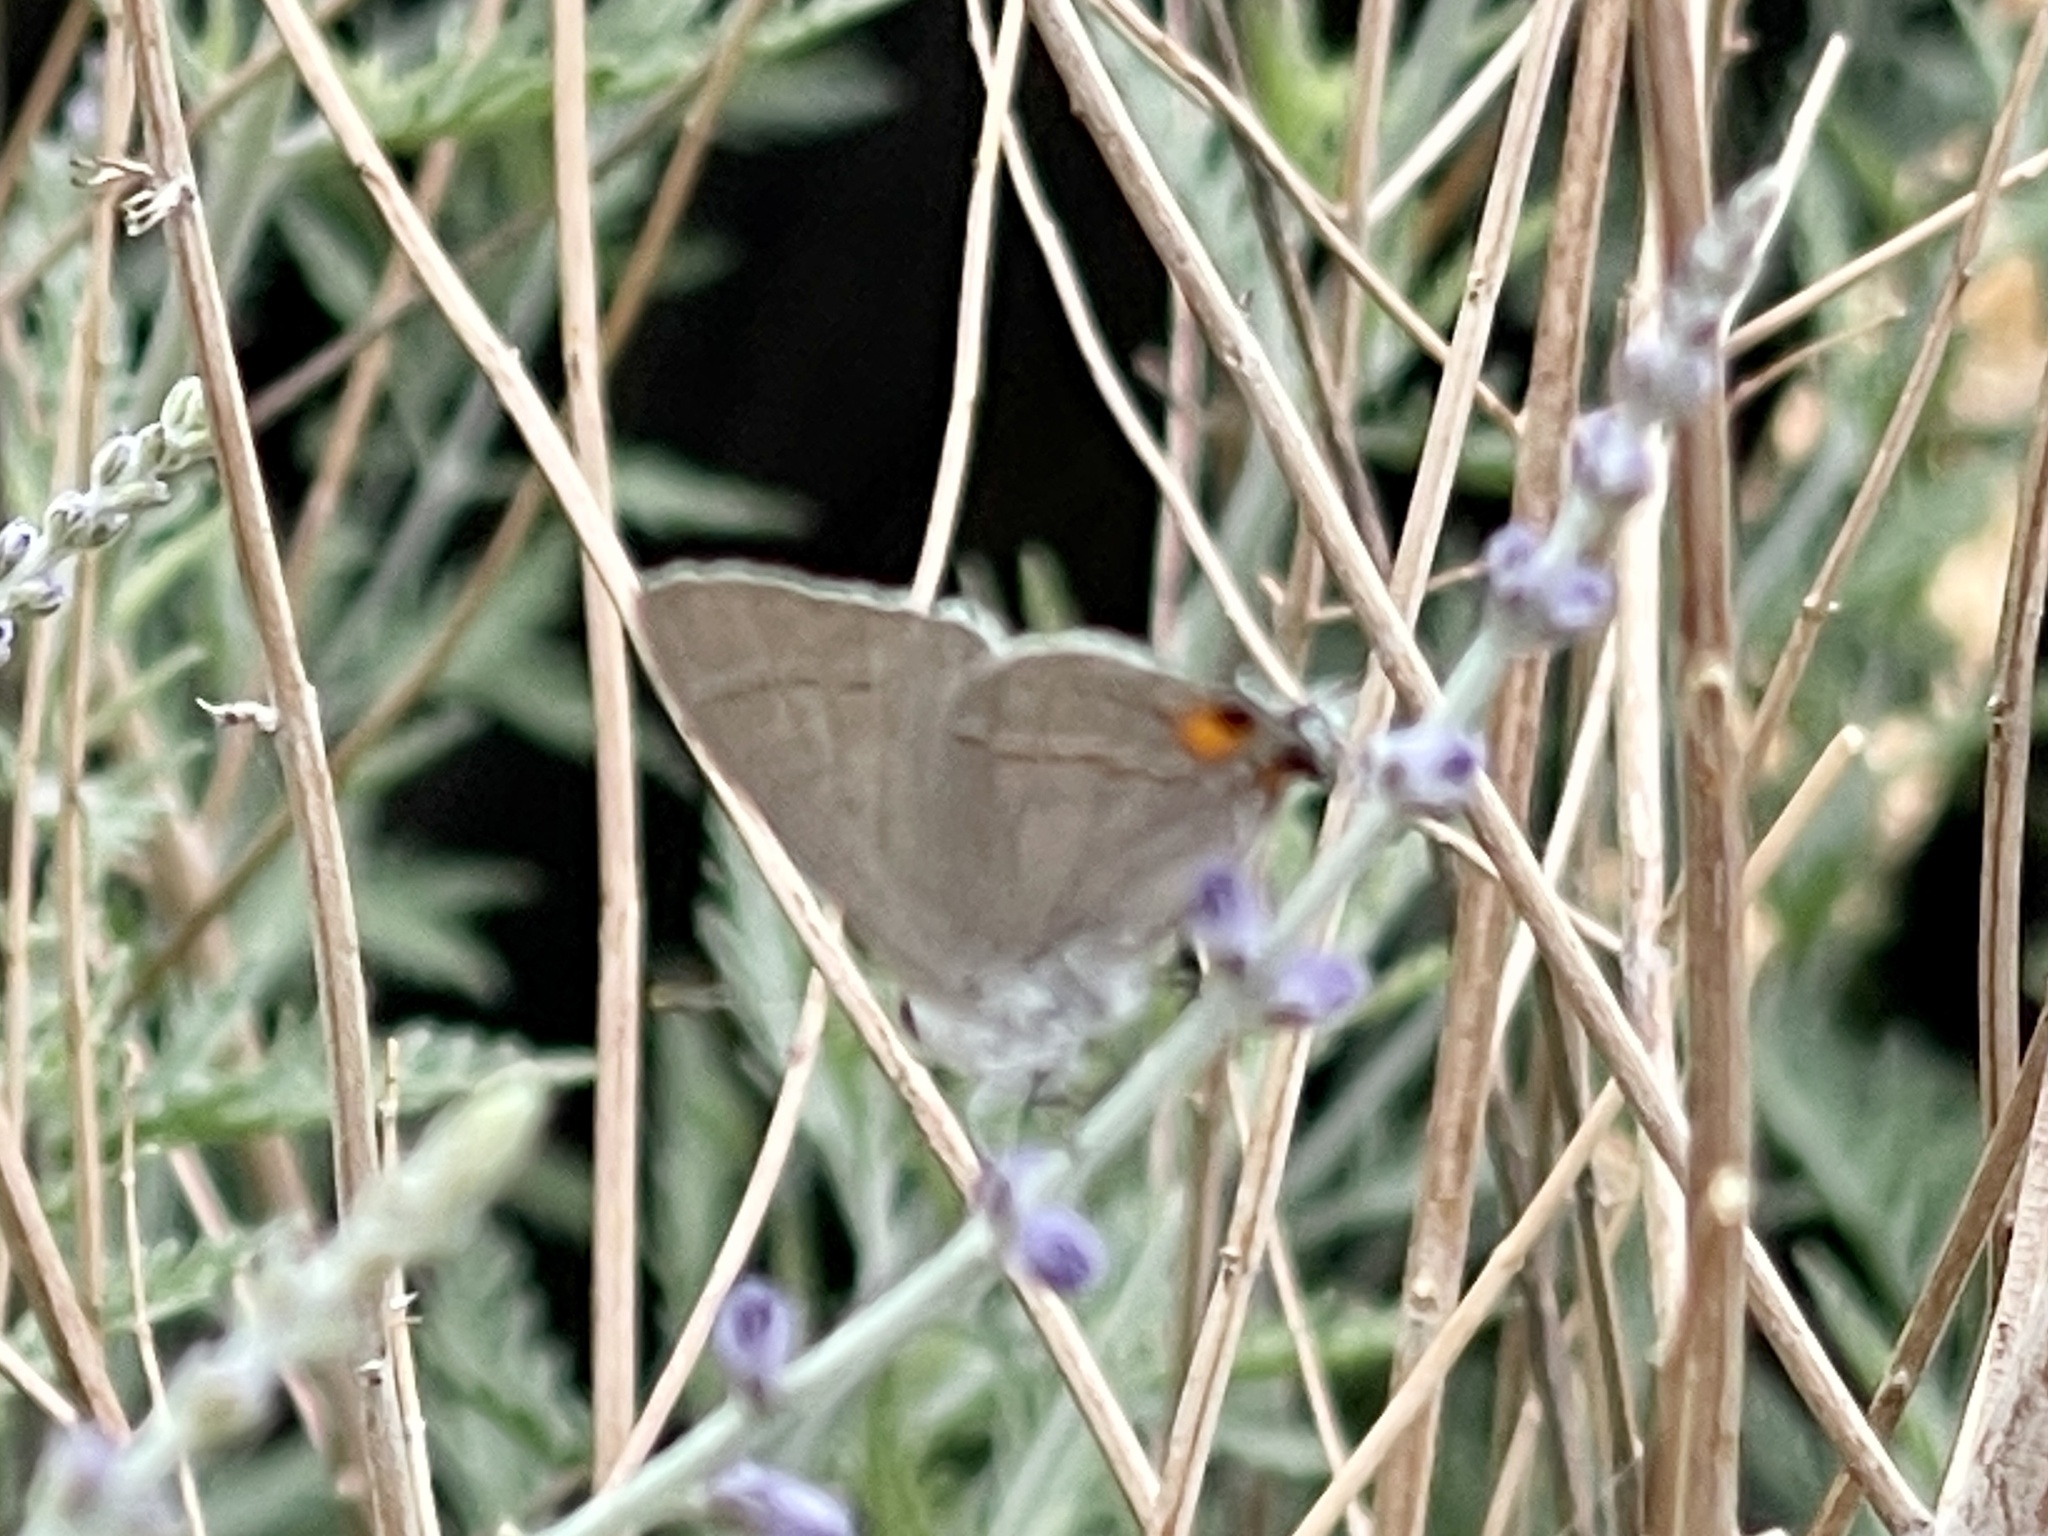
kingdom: Animalia
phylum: Arthropoda
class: Insecta
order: Lepidoptera
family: Lycaenidae
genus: Strymon
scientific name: Strymon melinus
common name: Gray hairstreak
